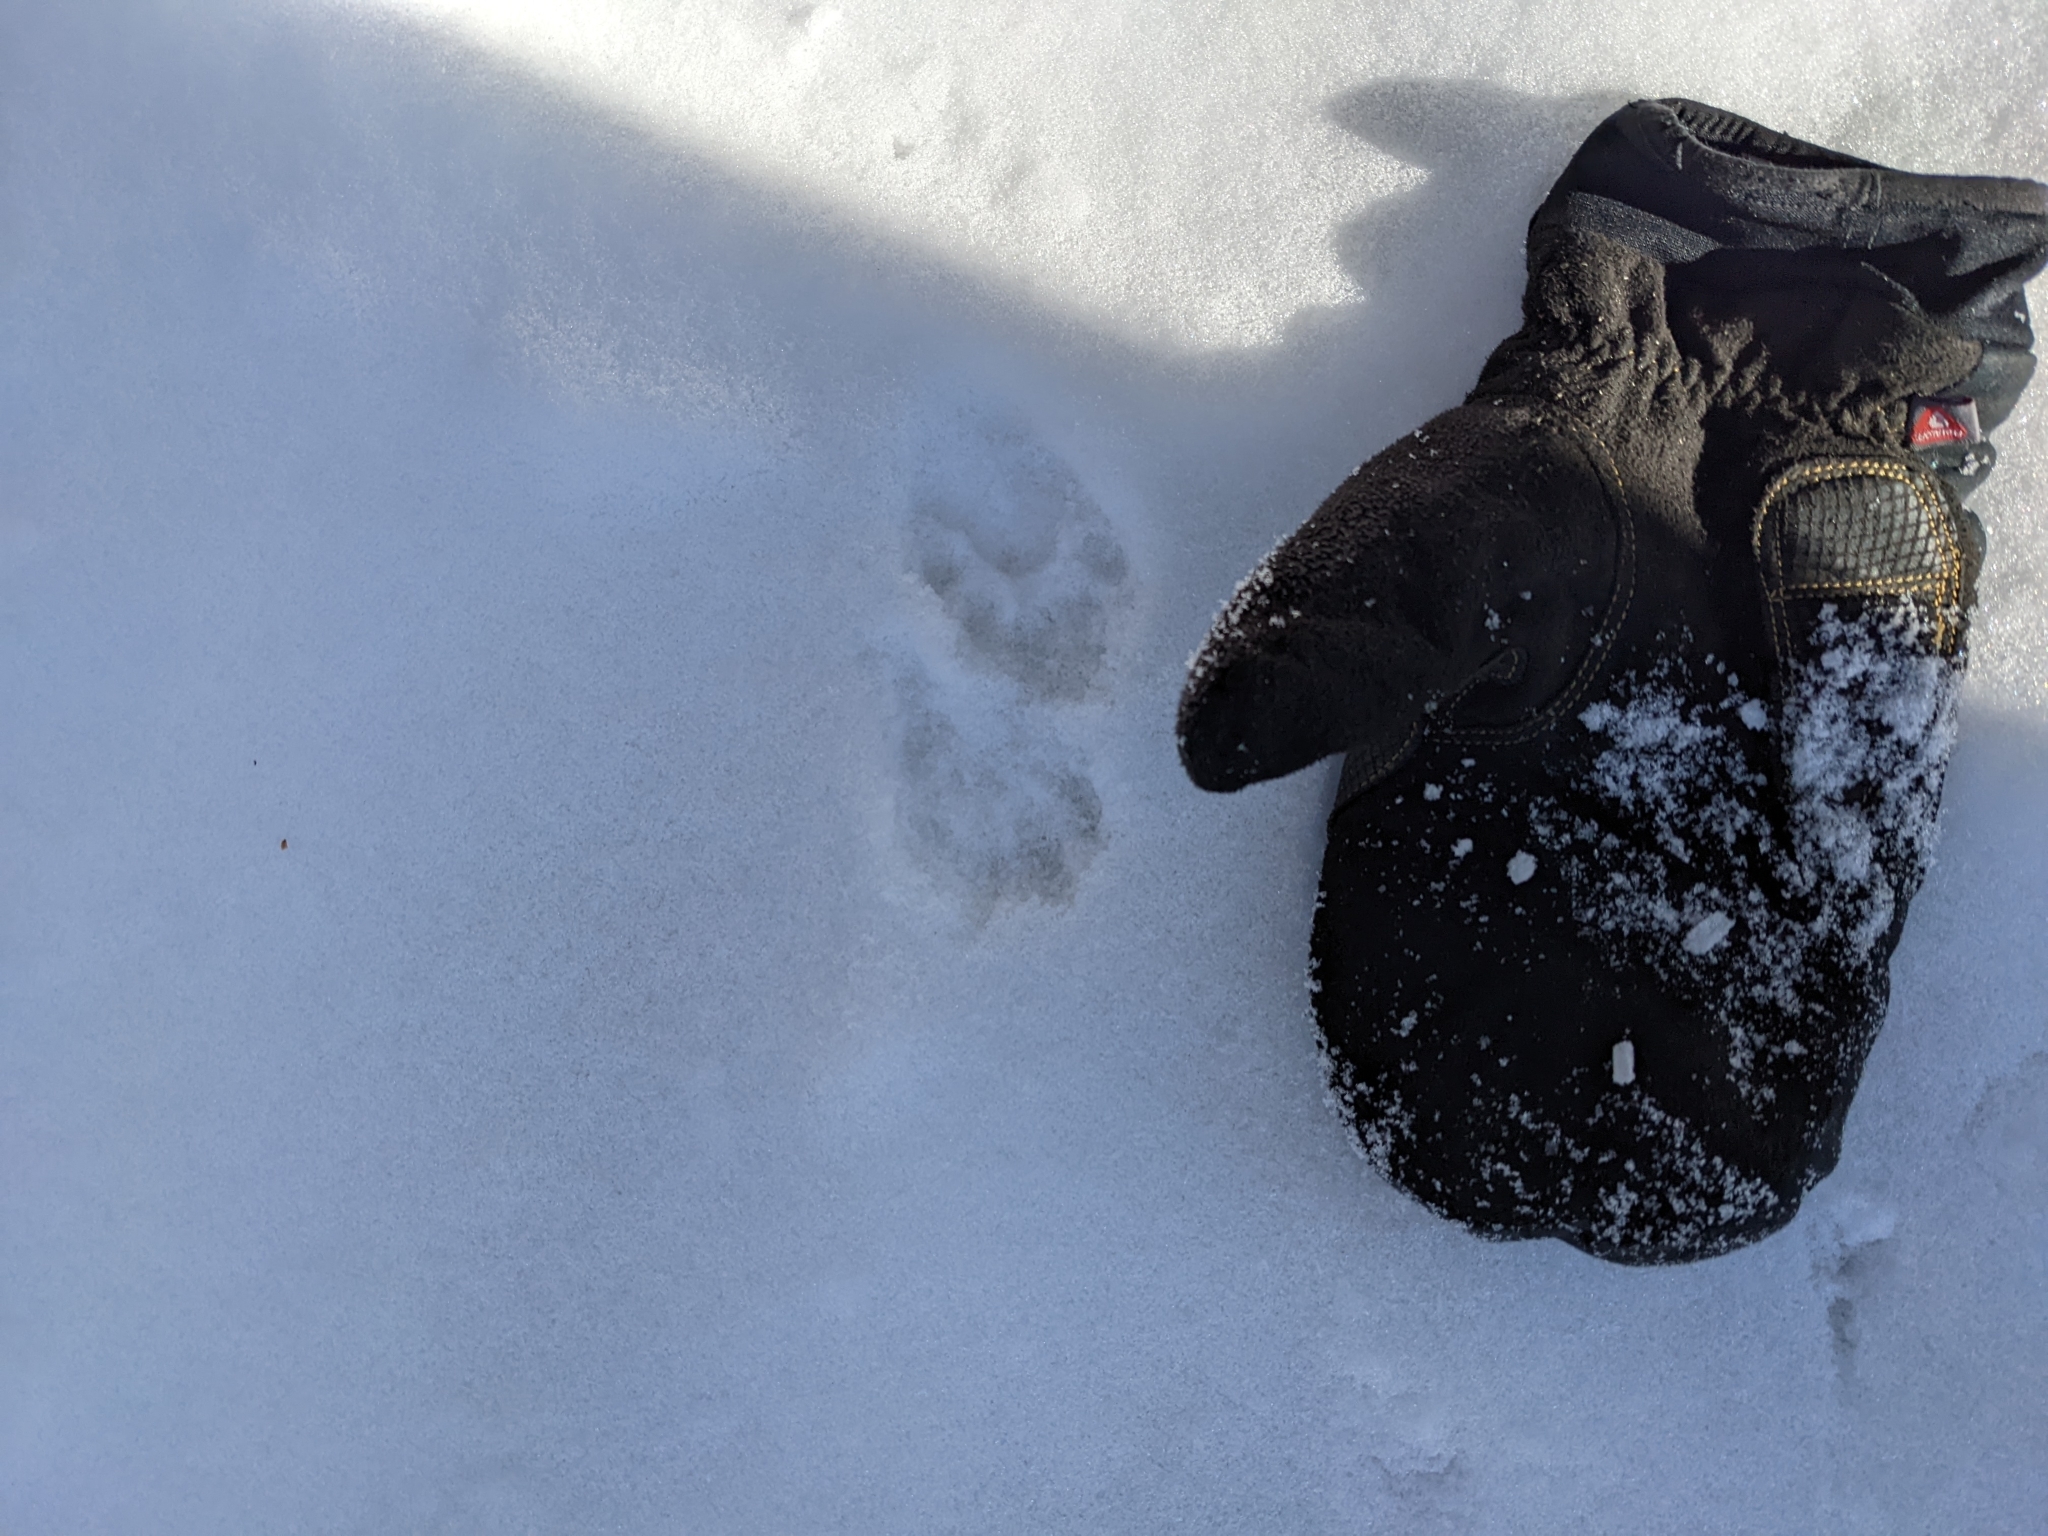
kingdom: Animalia
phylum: Chordata
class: Mammalia
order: Carnivora
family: Mustelidae
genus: Pekania
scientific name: Pekania pennanti
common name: Fisher
